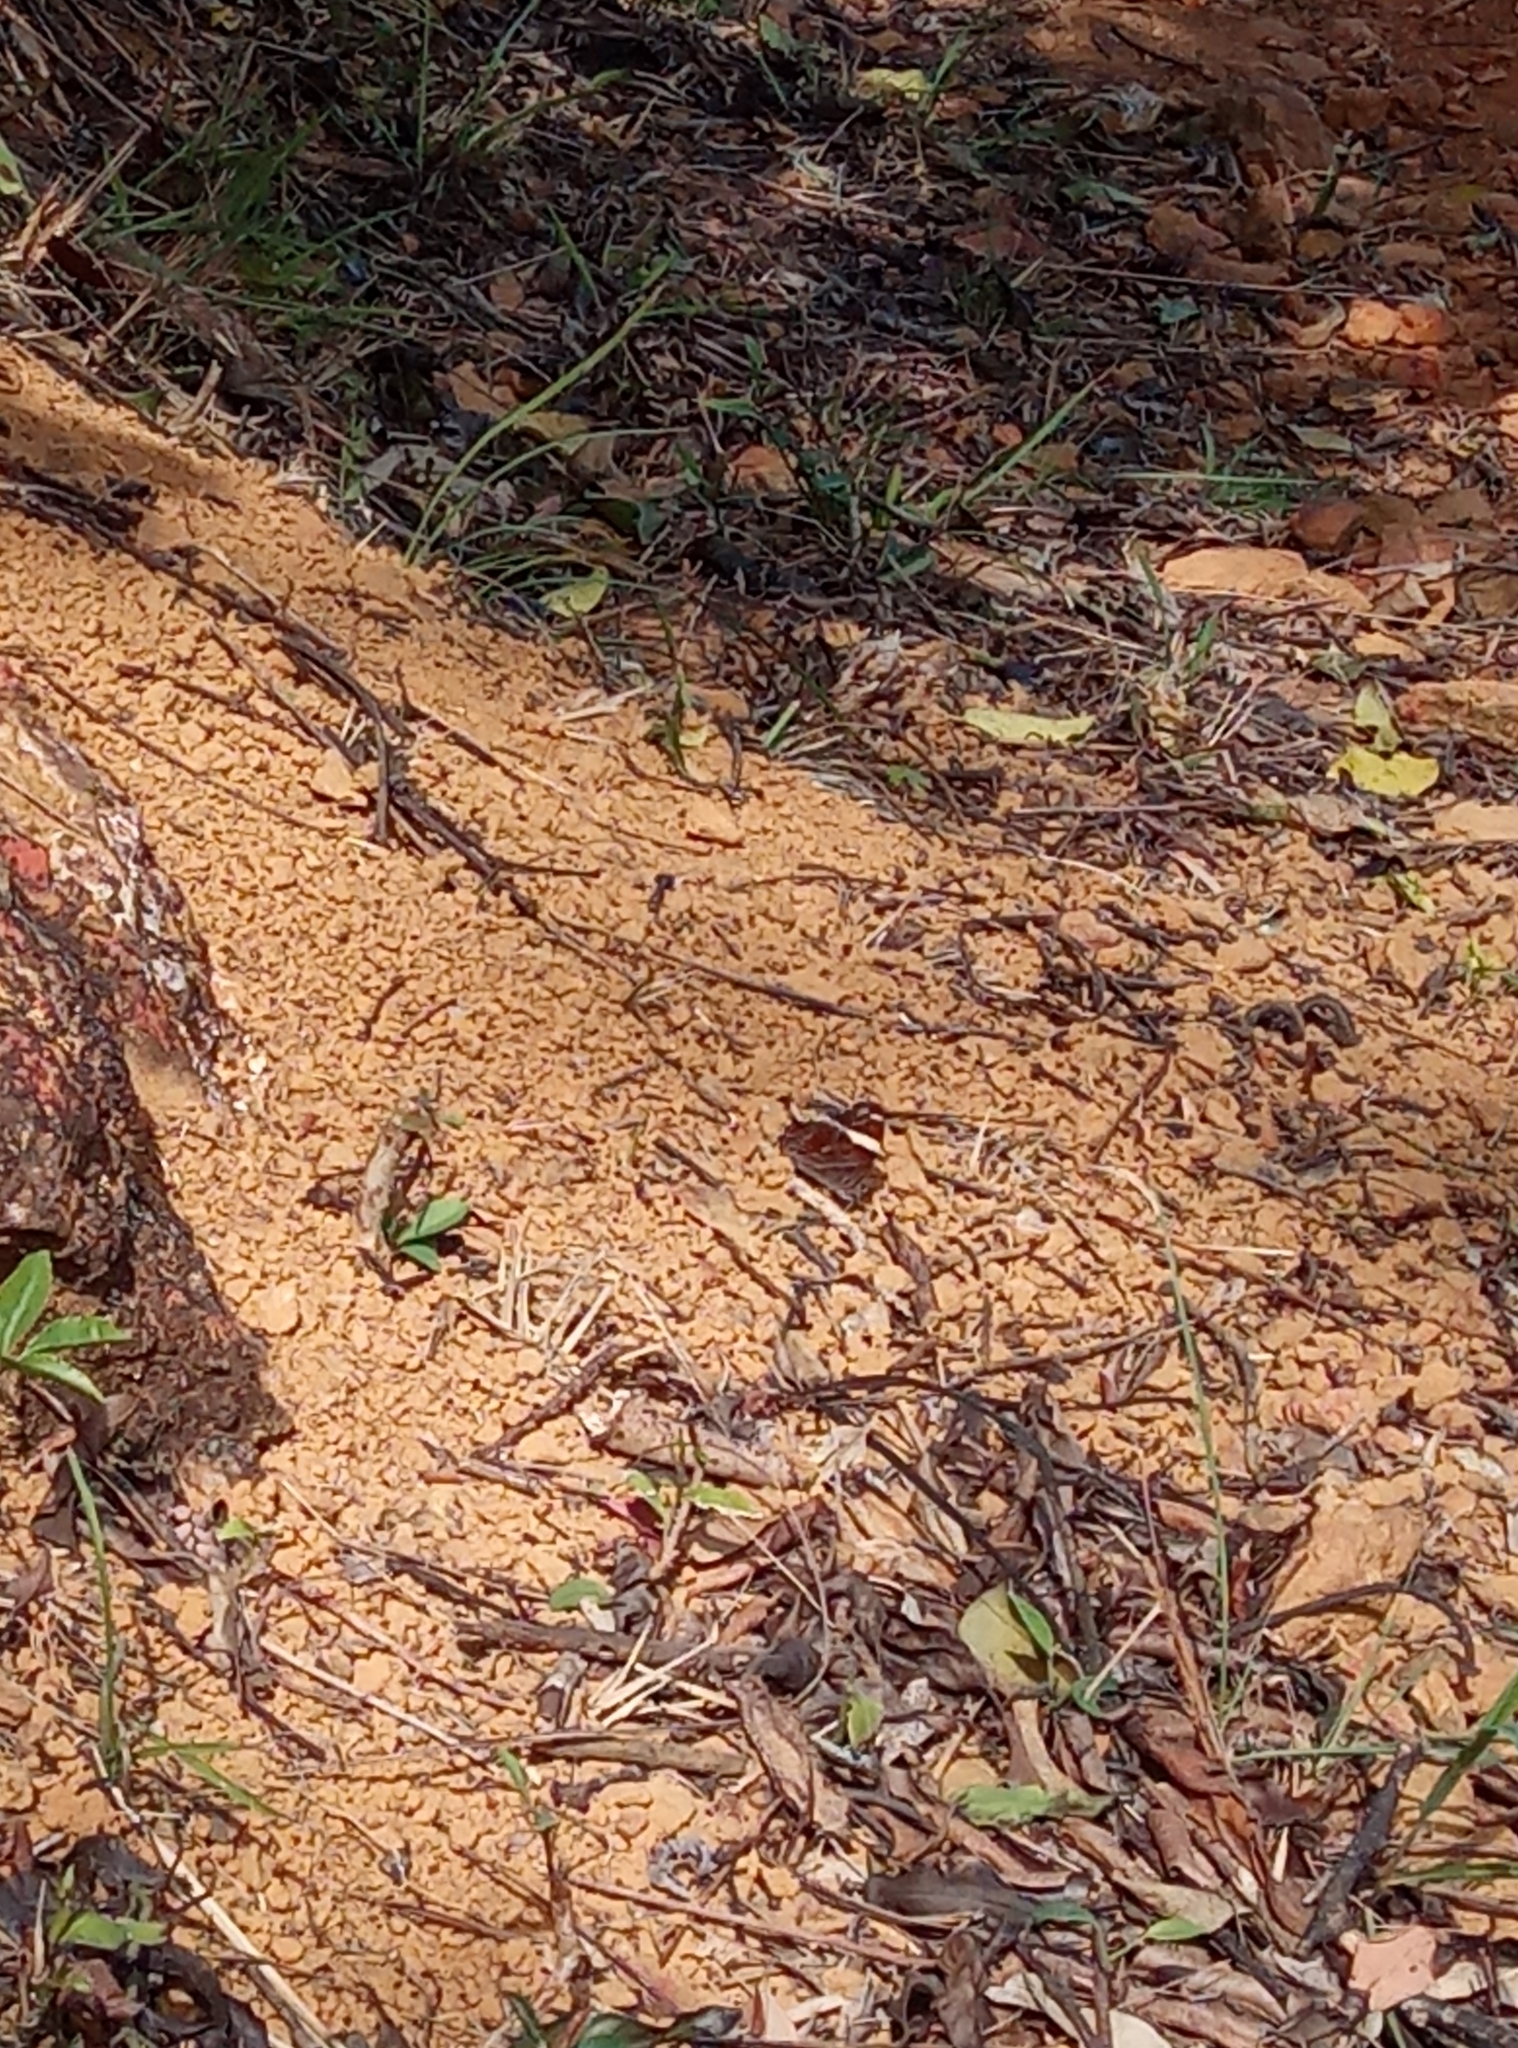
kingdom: Animalia
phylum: Arthropoda
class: Insecta
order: Lepidoptera
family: Nymphalidae
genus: Lethe
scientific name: Lethe confusa
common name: Banded treebrown
